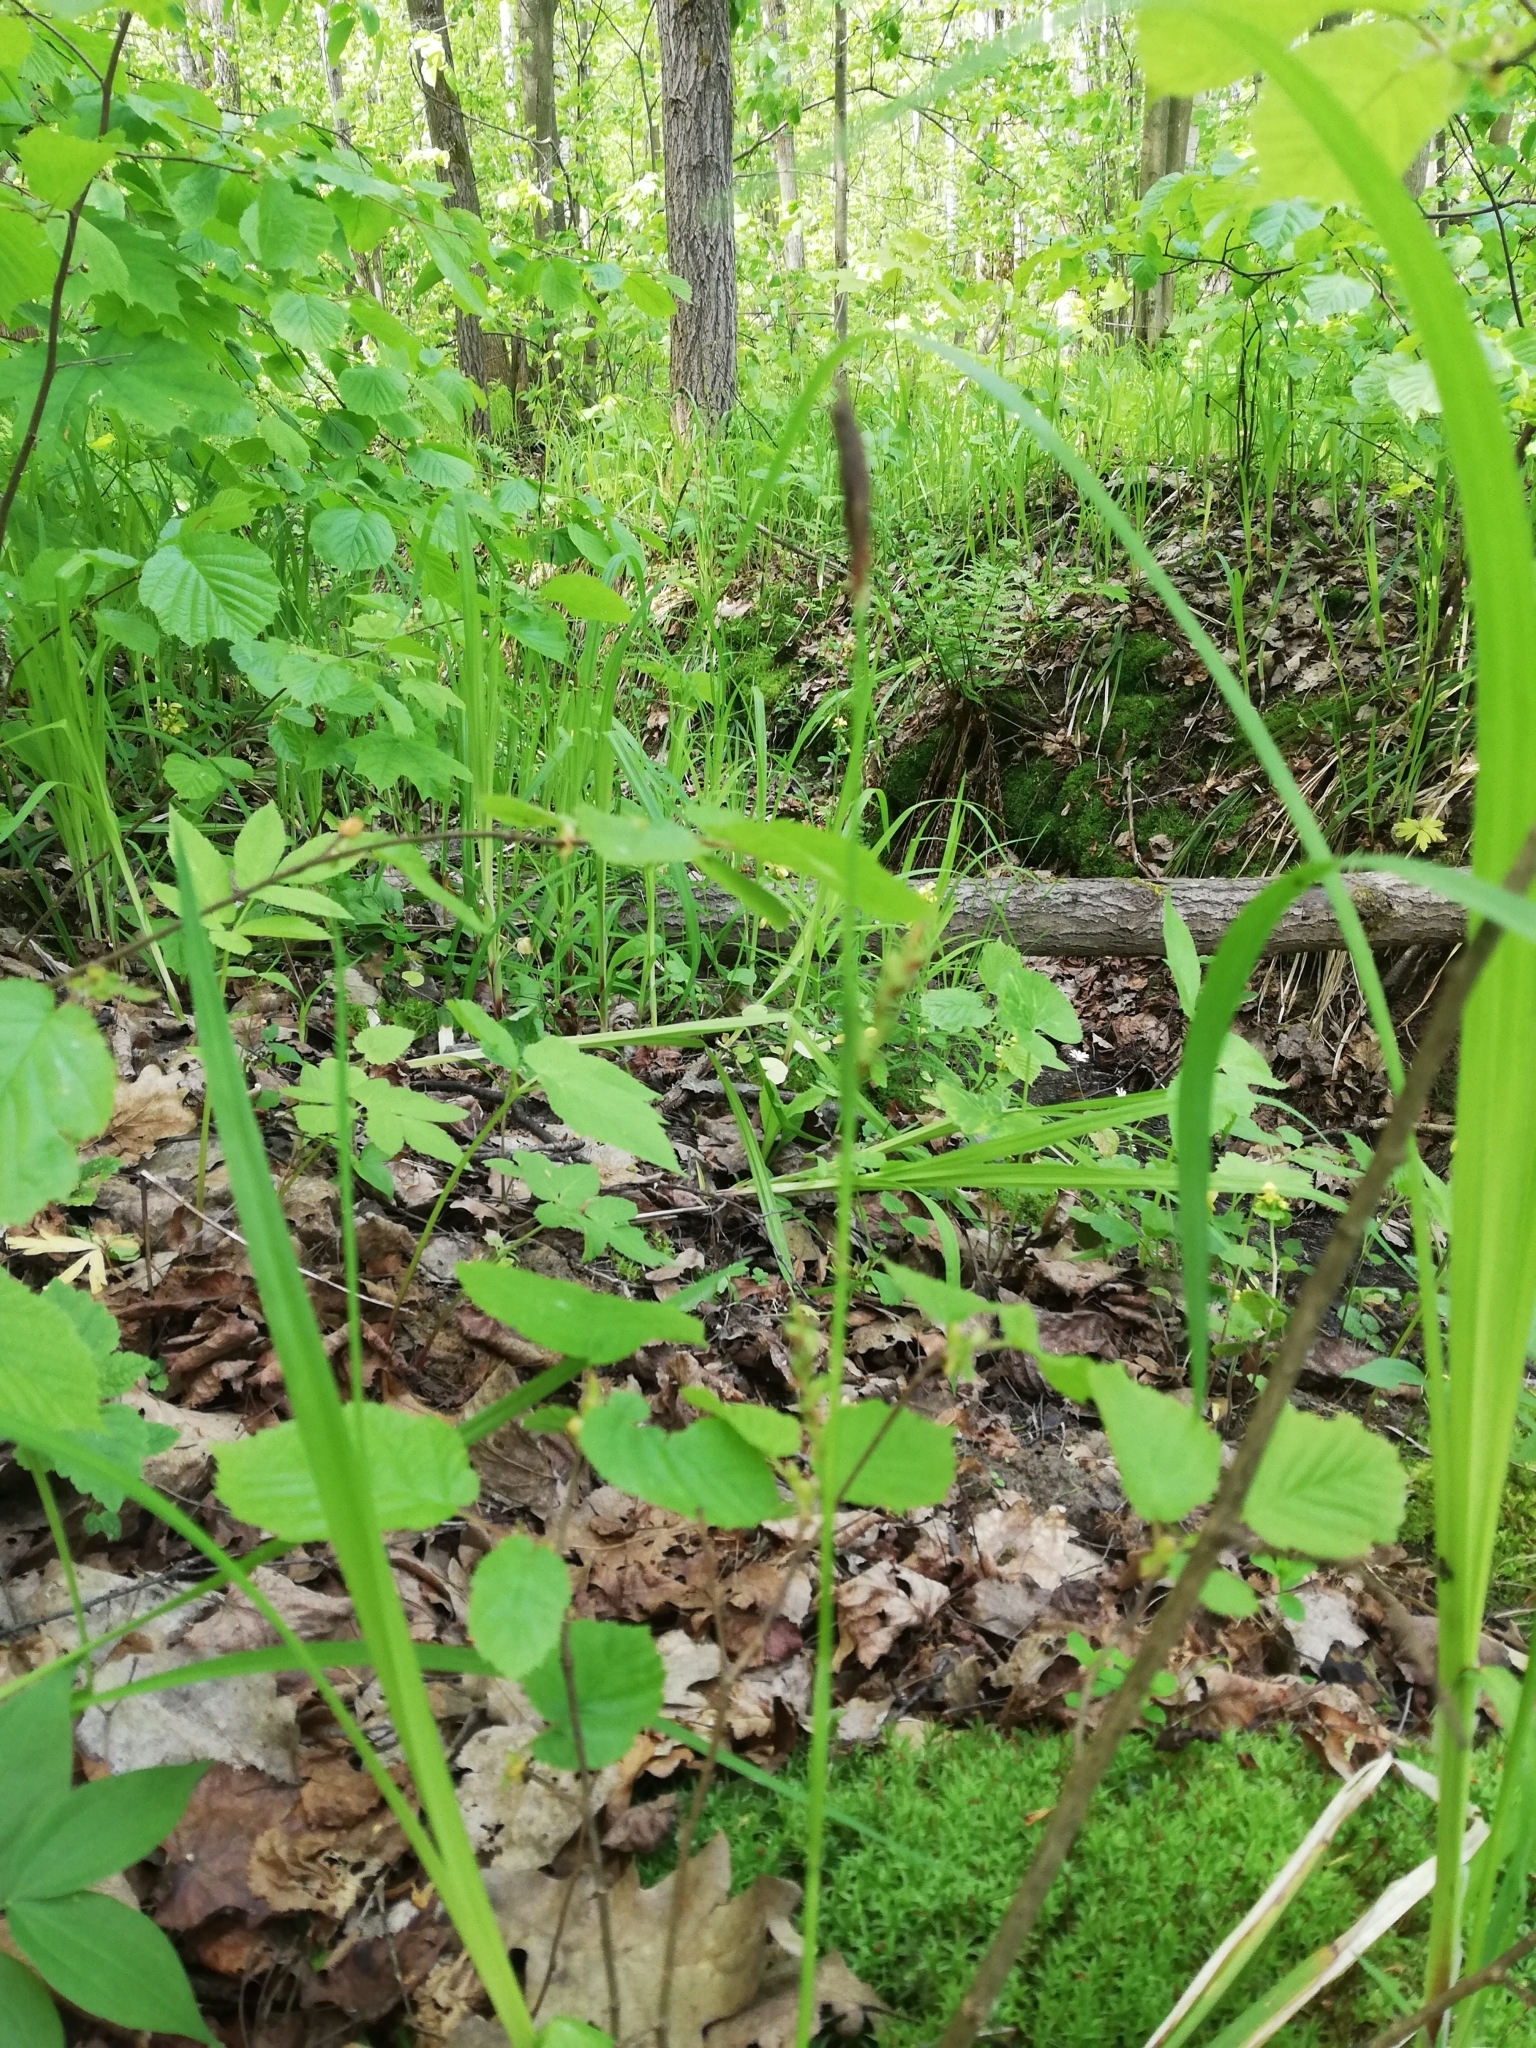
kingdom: Plantae
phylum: Tracheophyta
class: Liliopsida
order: Poales
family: Cyperaceae
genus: Carex
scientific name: Carex pilosa
